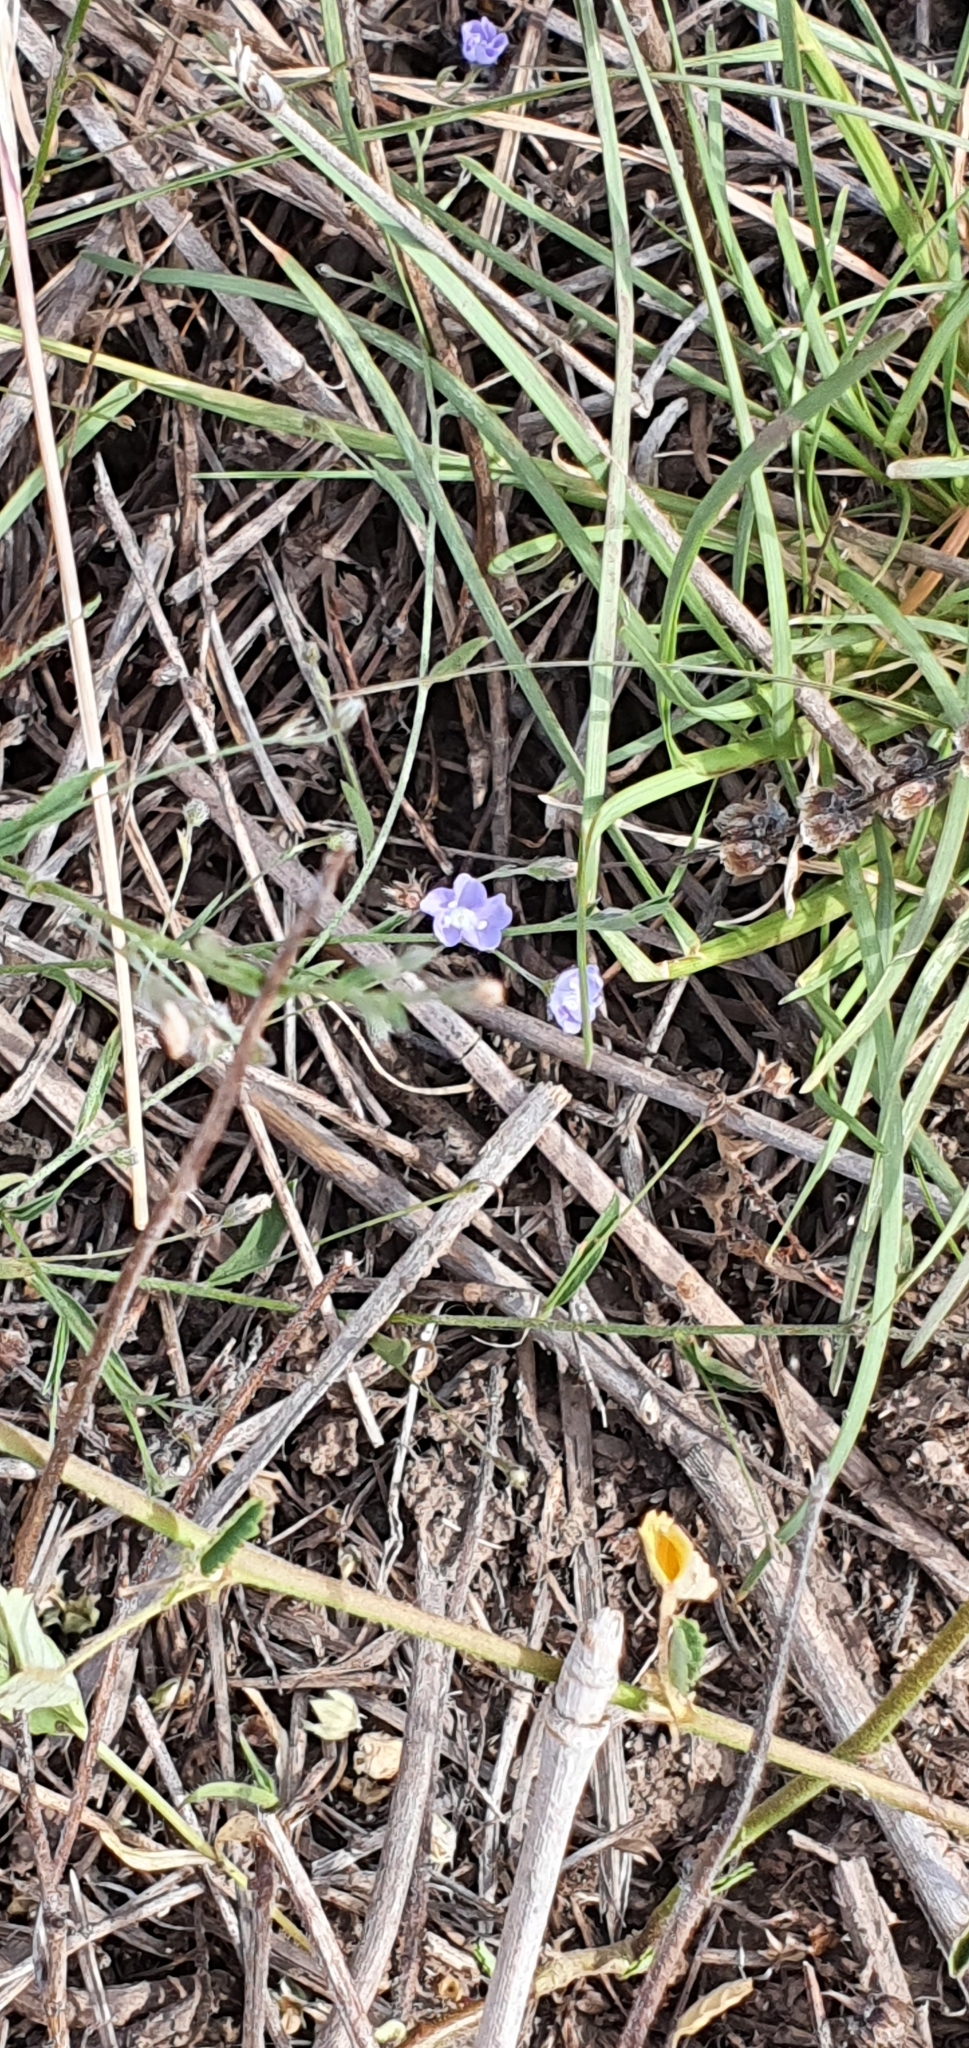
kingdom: Plantae
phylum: Tracheophyta
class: Magnoliopsida
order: Solanales
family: Convolvulaceae
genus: Evolvulus
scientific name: Evolvulus alsinoides
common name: Slender dwarf morning-glory
